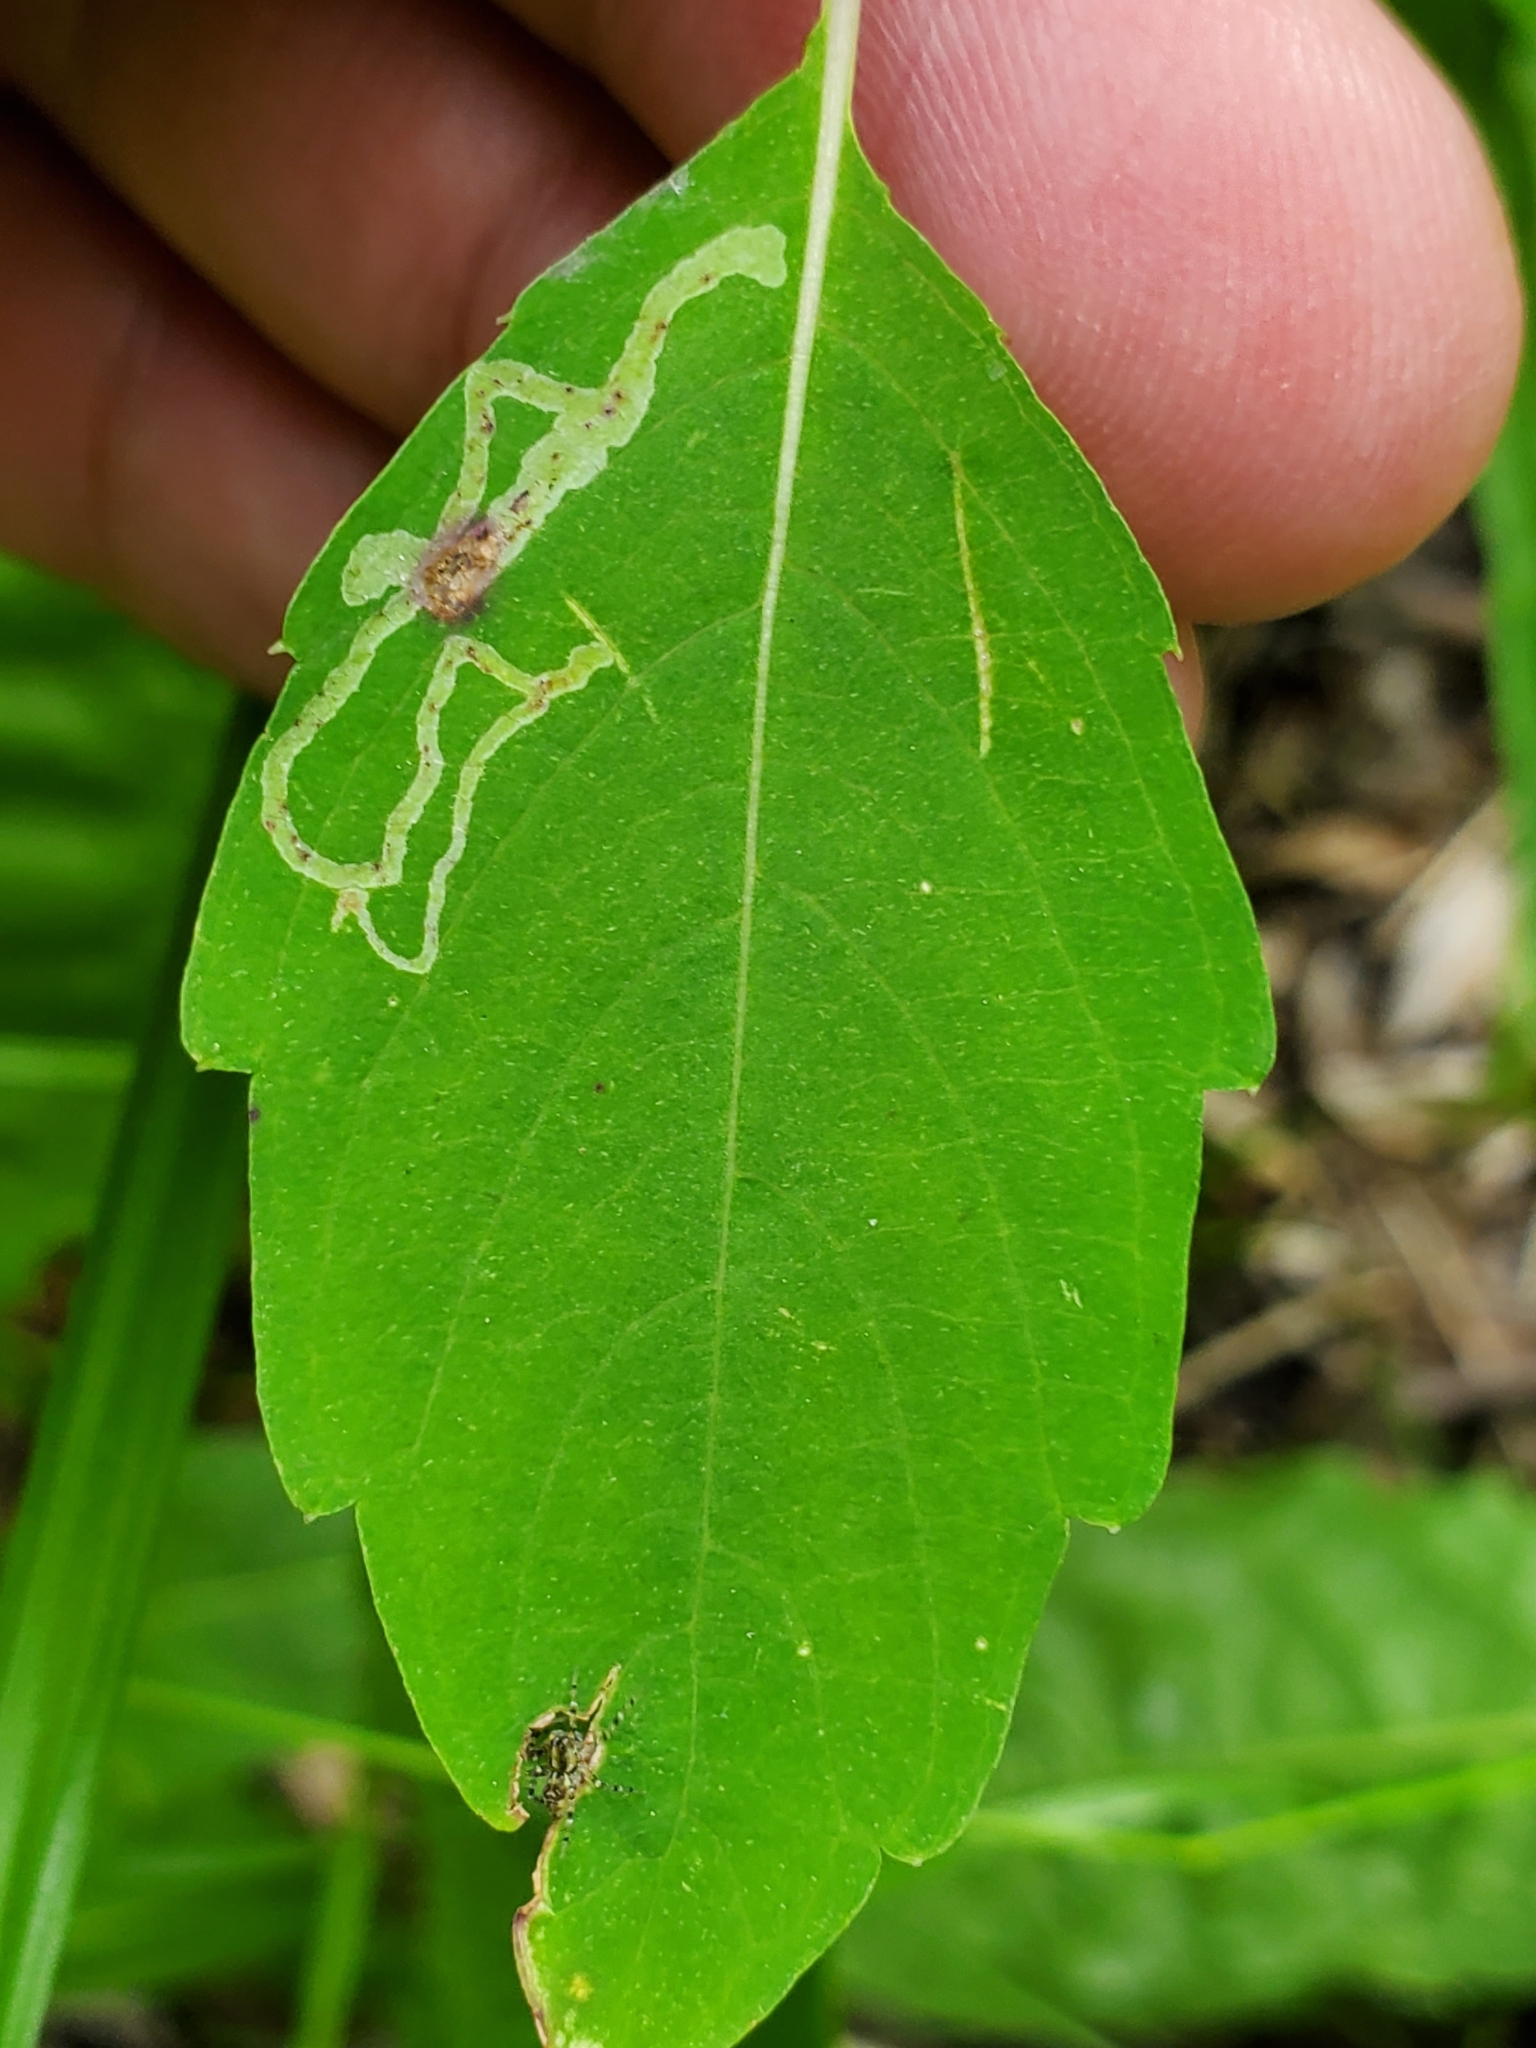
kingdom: Animalia
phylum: Arthropoda
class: Insecta
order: Diptera
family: Agromyzidae
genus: Phytoliriomyza
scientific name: Phytoliriomyza melampyga
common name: Jewelweed leaf-miner fly
